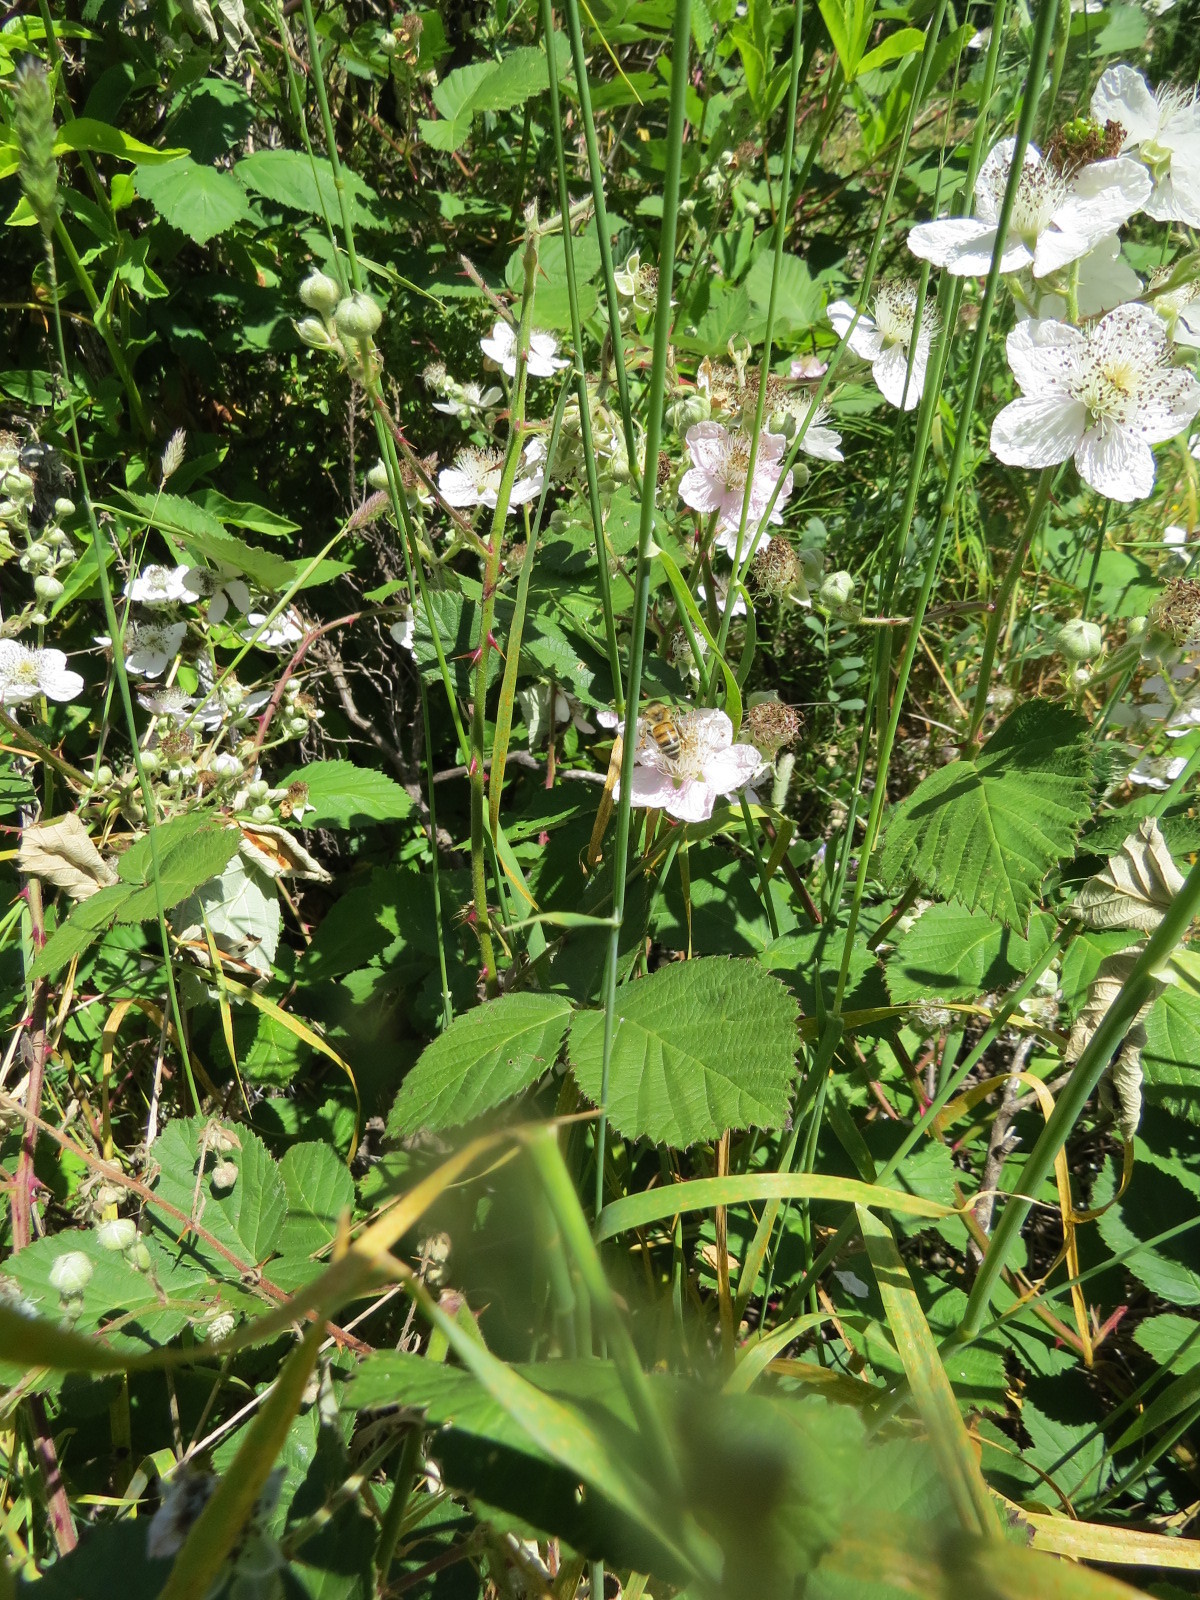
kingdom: Animalia
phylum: Arthropoda
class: Insecta
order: Hymenoptera
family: Apidae
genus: Apis
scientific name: Apis mellifera
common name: Honey bee
